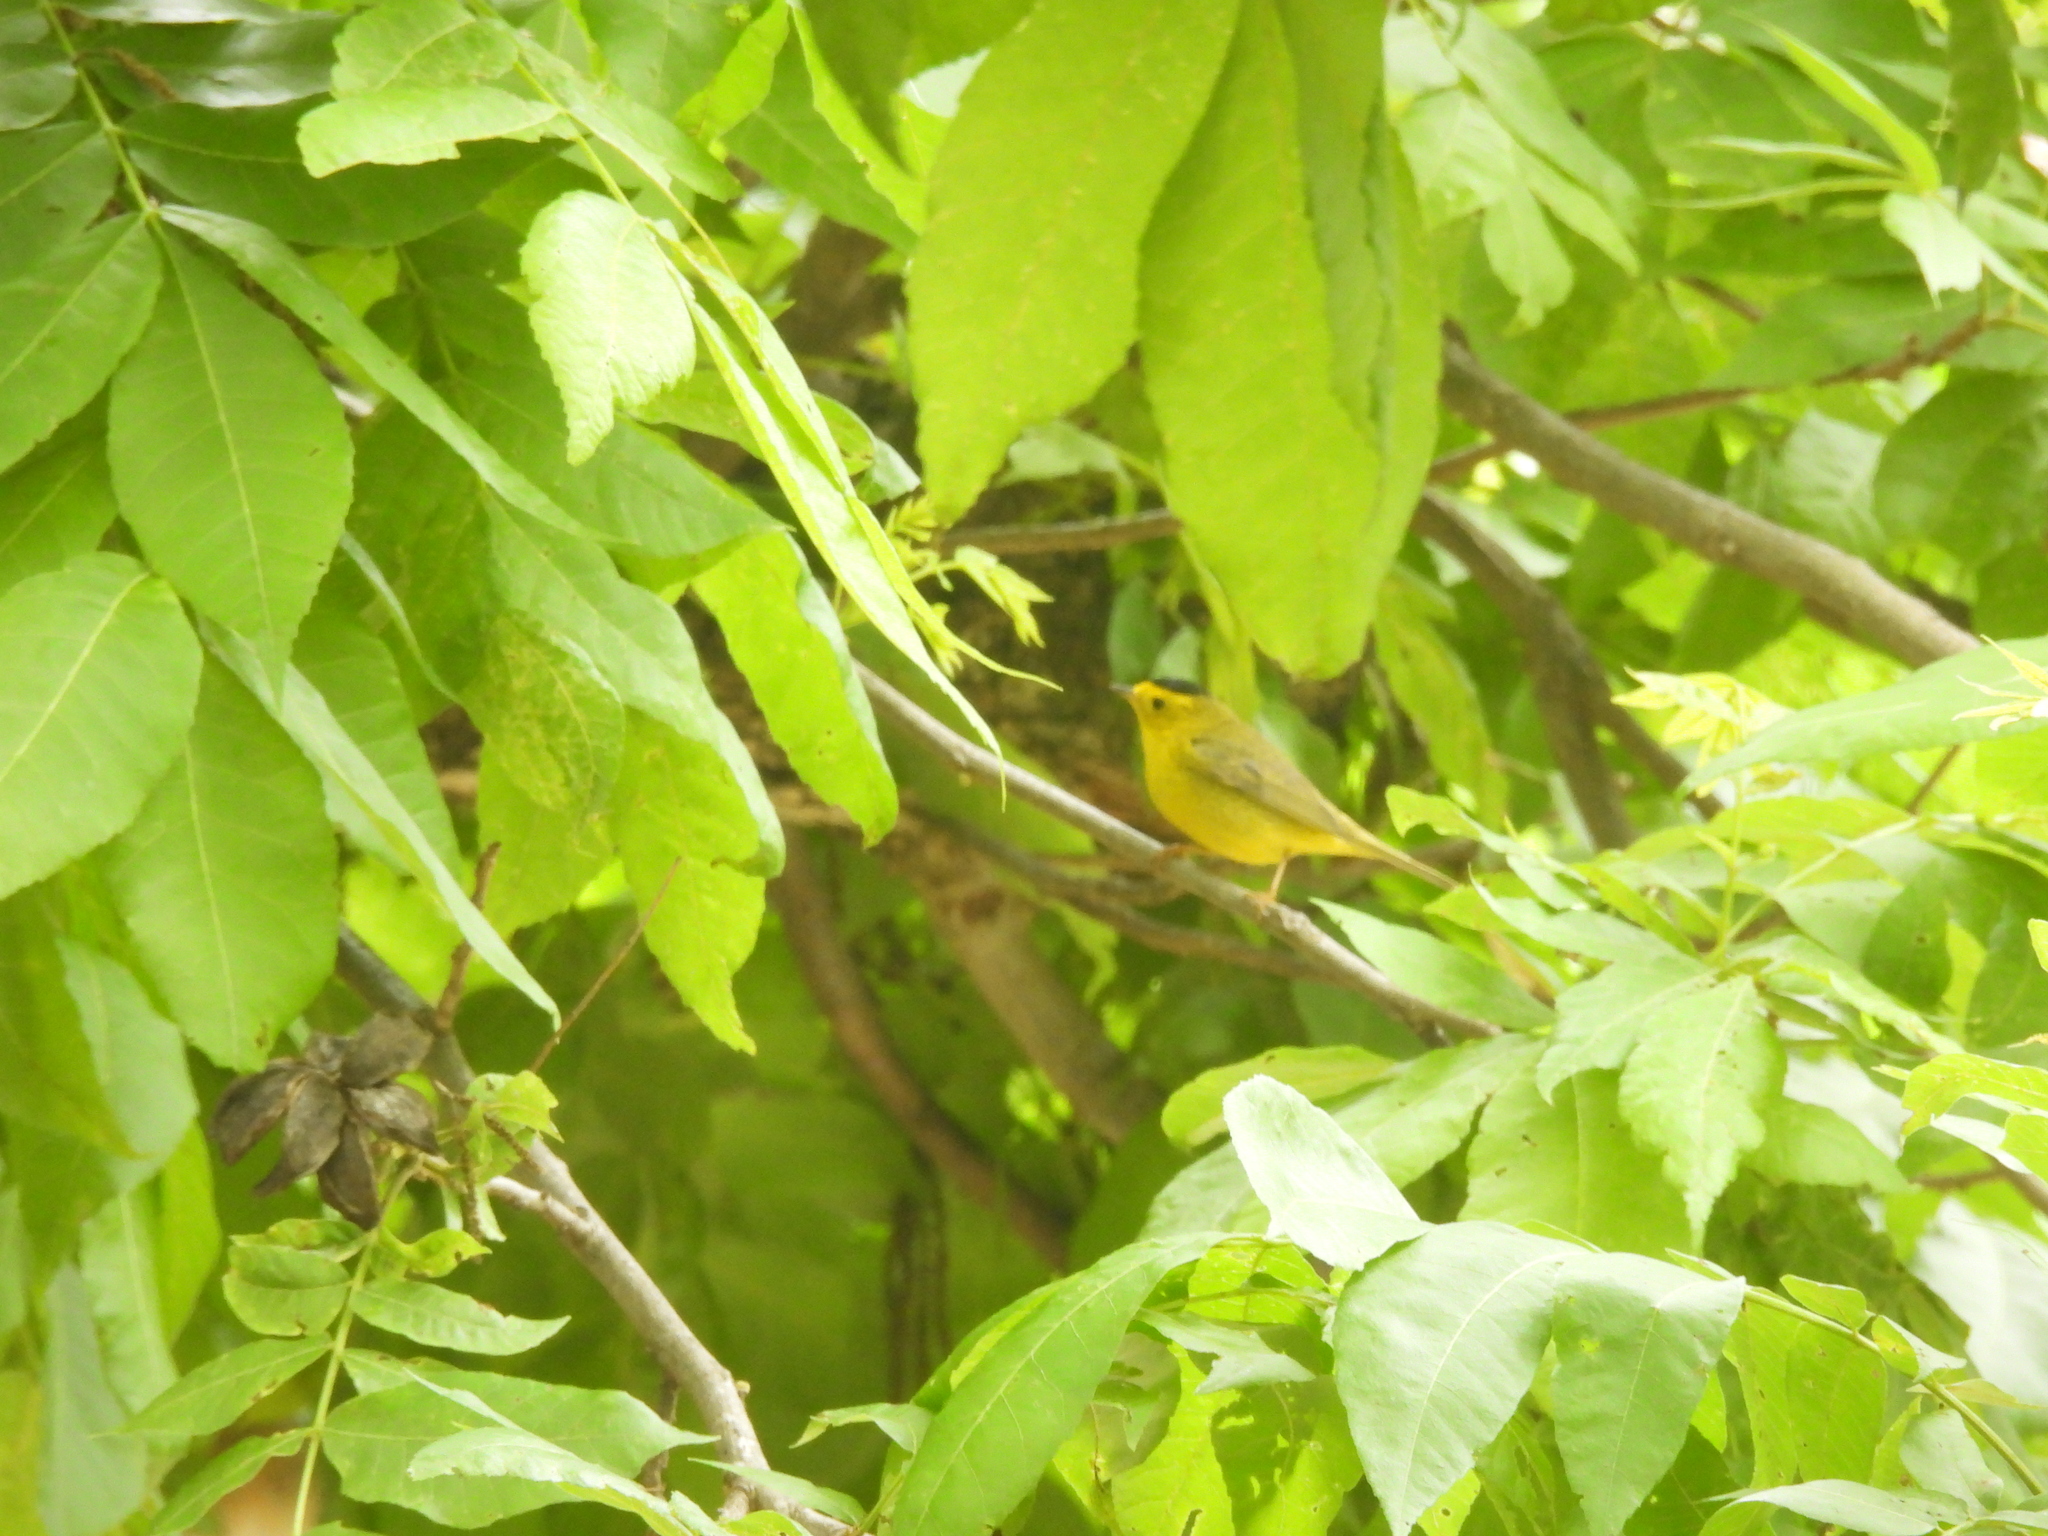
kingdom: Animalia
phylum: Chordata
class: Aves
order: Passeriformes
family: Parulidae
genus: Cardellina
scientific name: Cardellina pusilla
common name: Wilson's warbler
